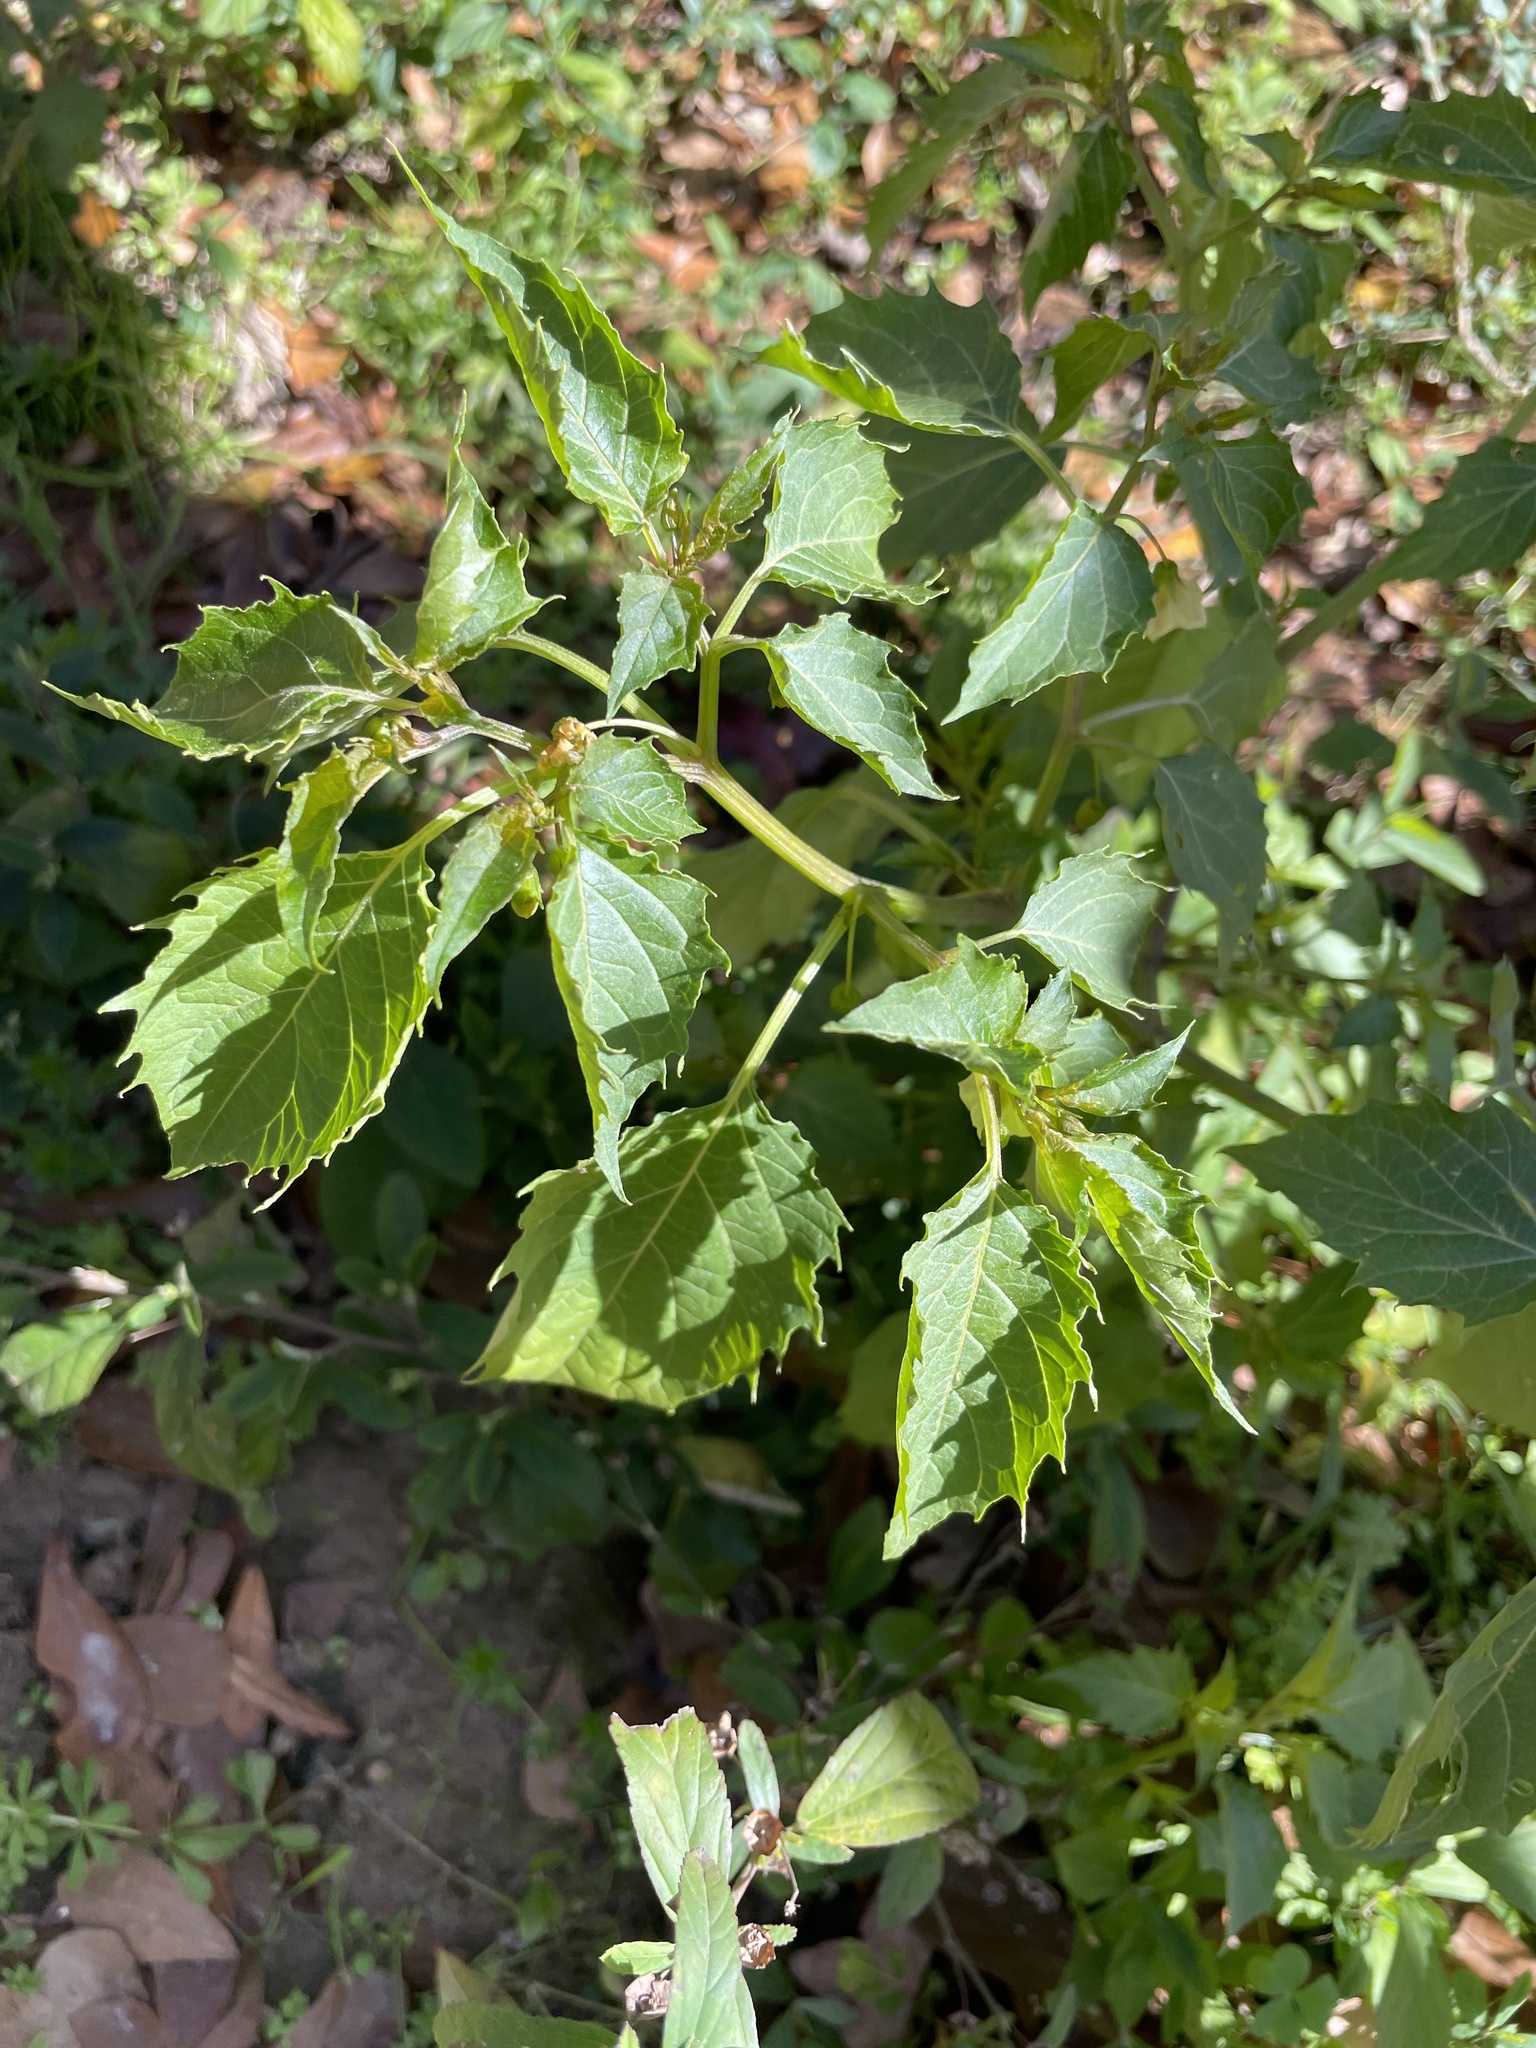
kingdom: Plantae
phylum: Tracheophyta
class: Magnoliopsida
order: Solanales
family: Solanaceae
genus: Physalis
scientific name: Physalis angulata
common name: Angular winter-cherry
